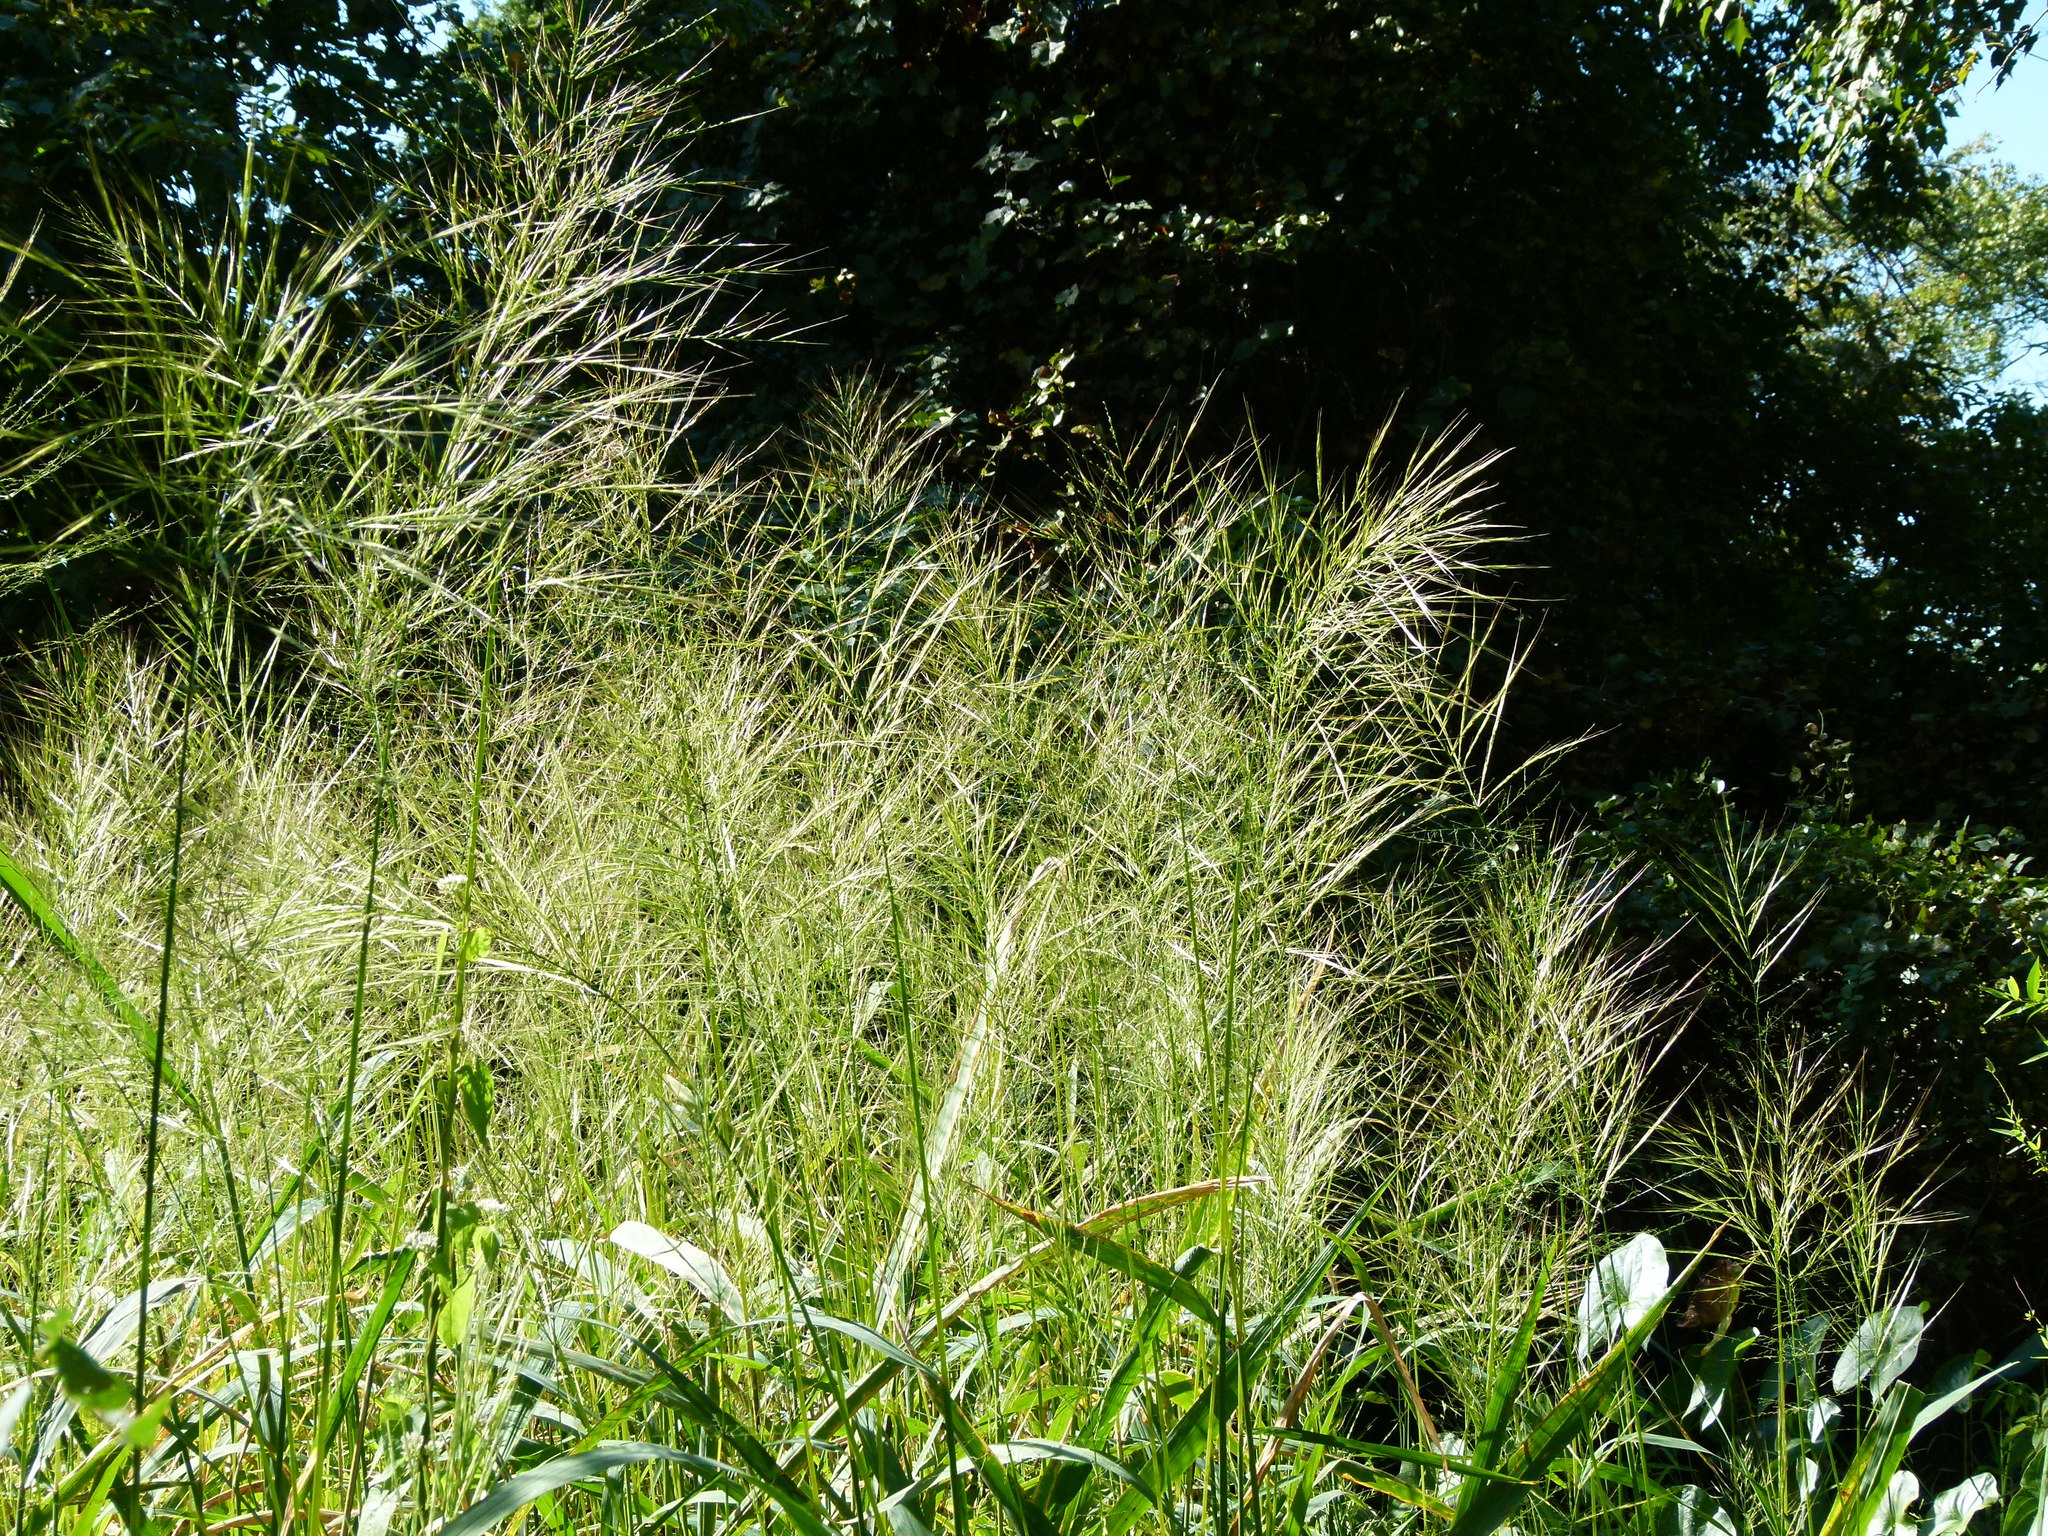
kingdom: Plantae
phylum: Tracheophyta
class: Liliopsida
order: Poales
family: Poaceae
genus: Zizania
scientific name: Zizania aquatica
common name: Annual wildrice
